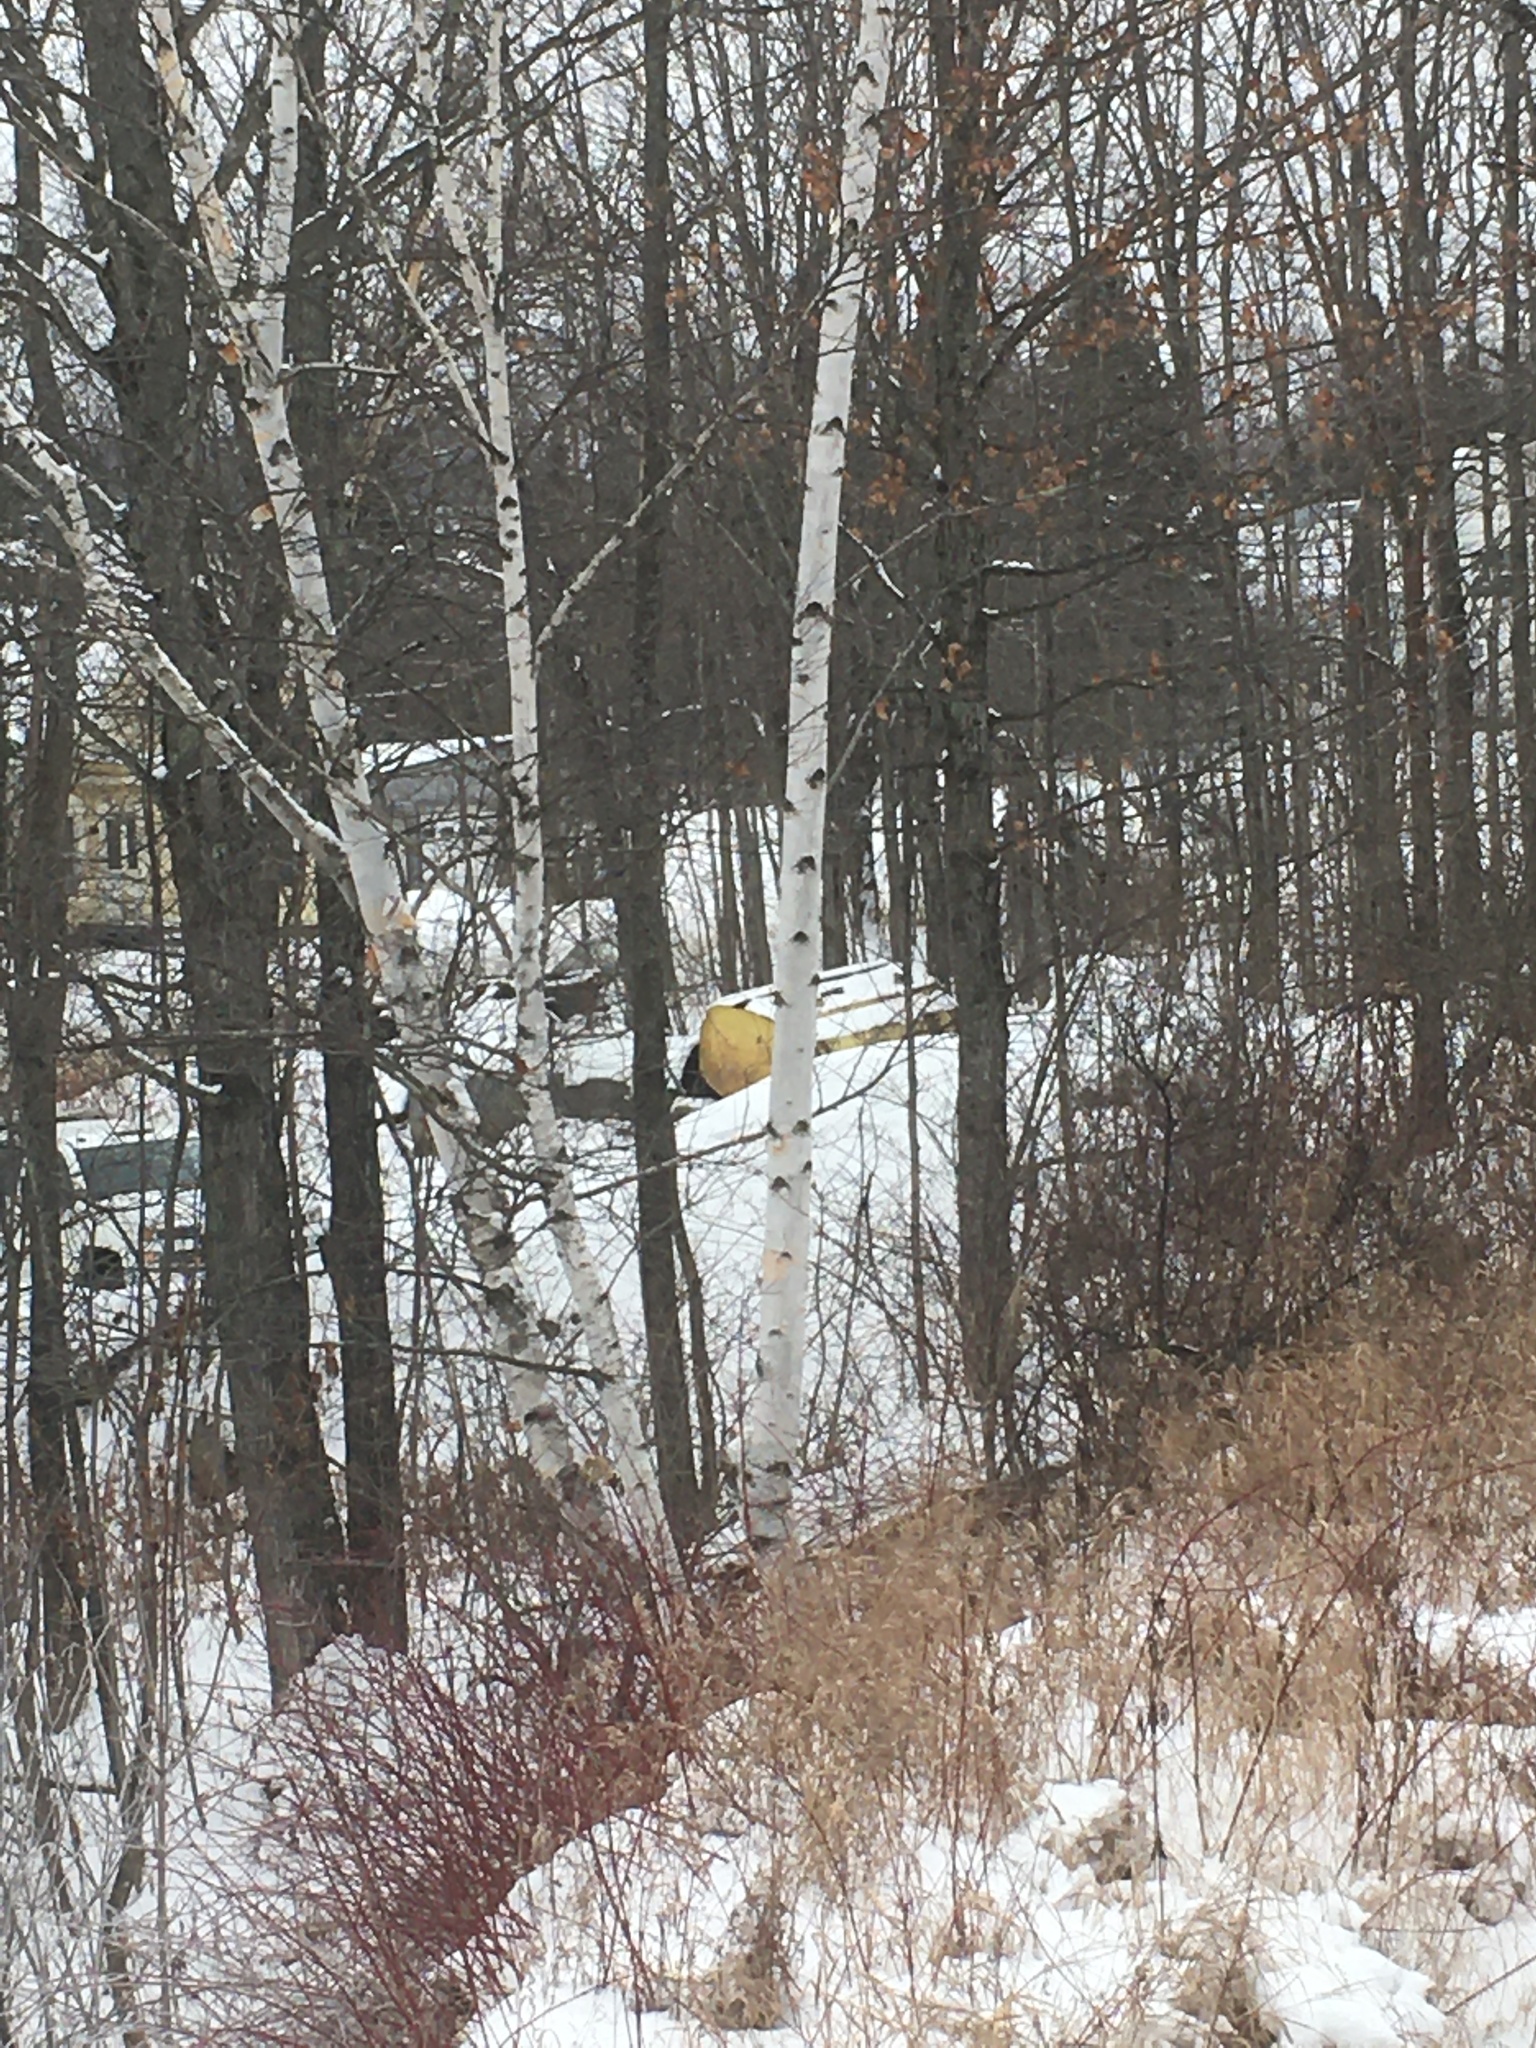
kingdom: Plantae
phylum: Tracheophyta
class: Magnoliopsida
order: Fagales
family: Betulaceae
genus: Betula
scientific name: Betula papyrifera
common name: Paper birch
